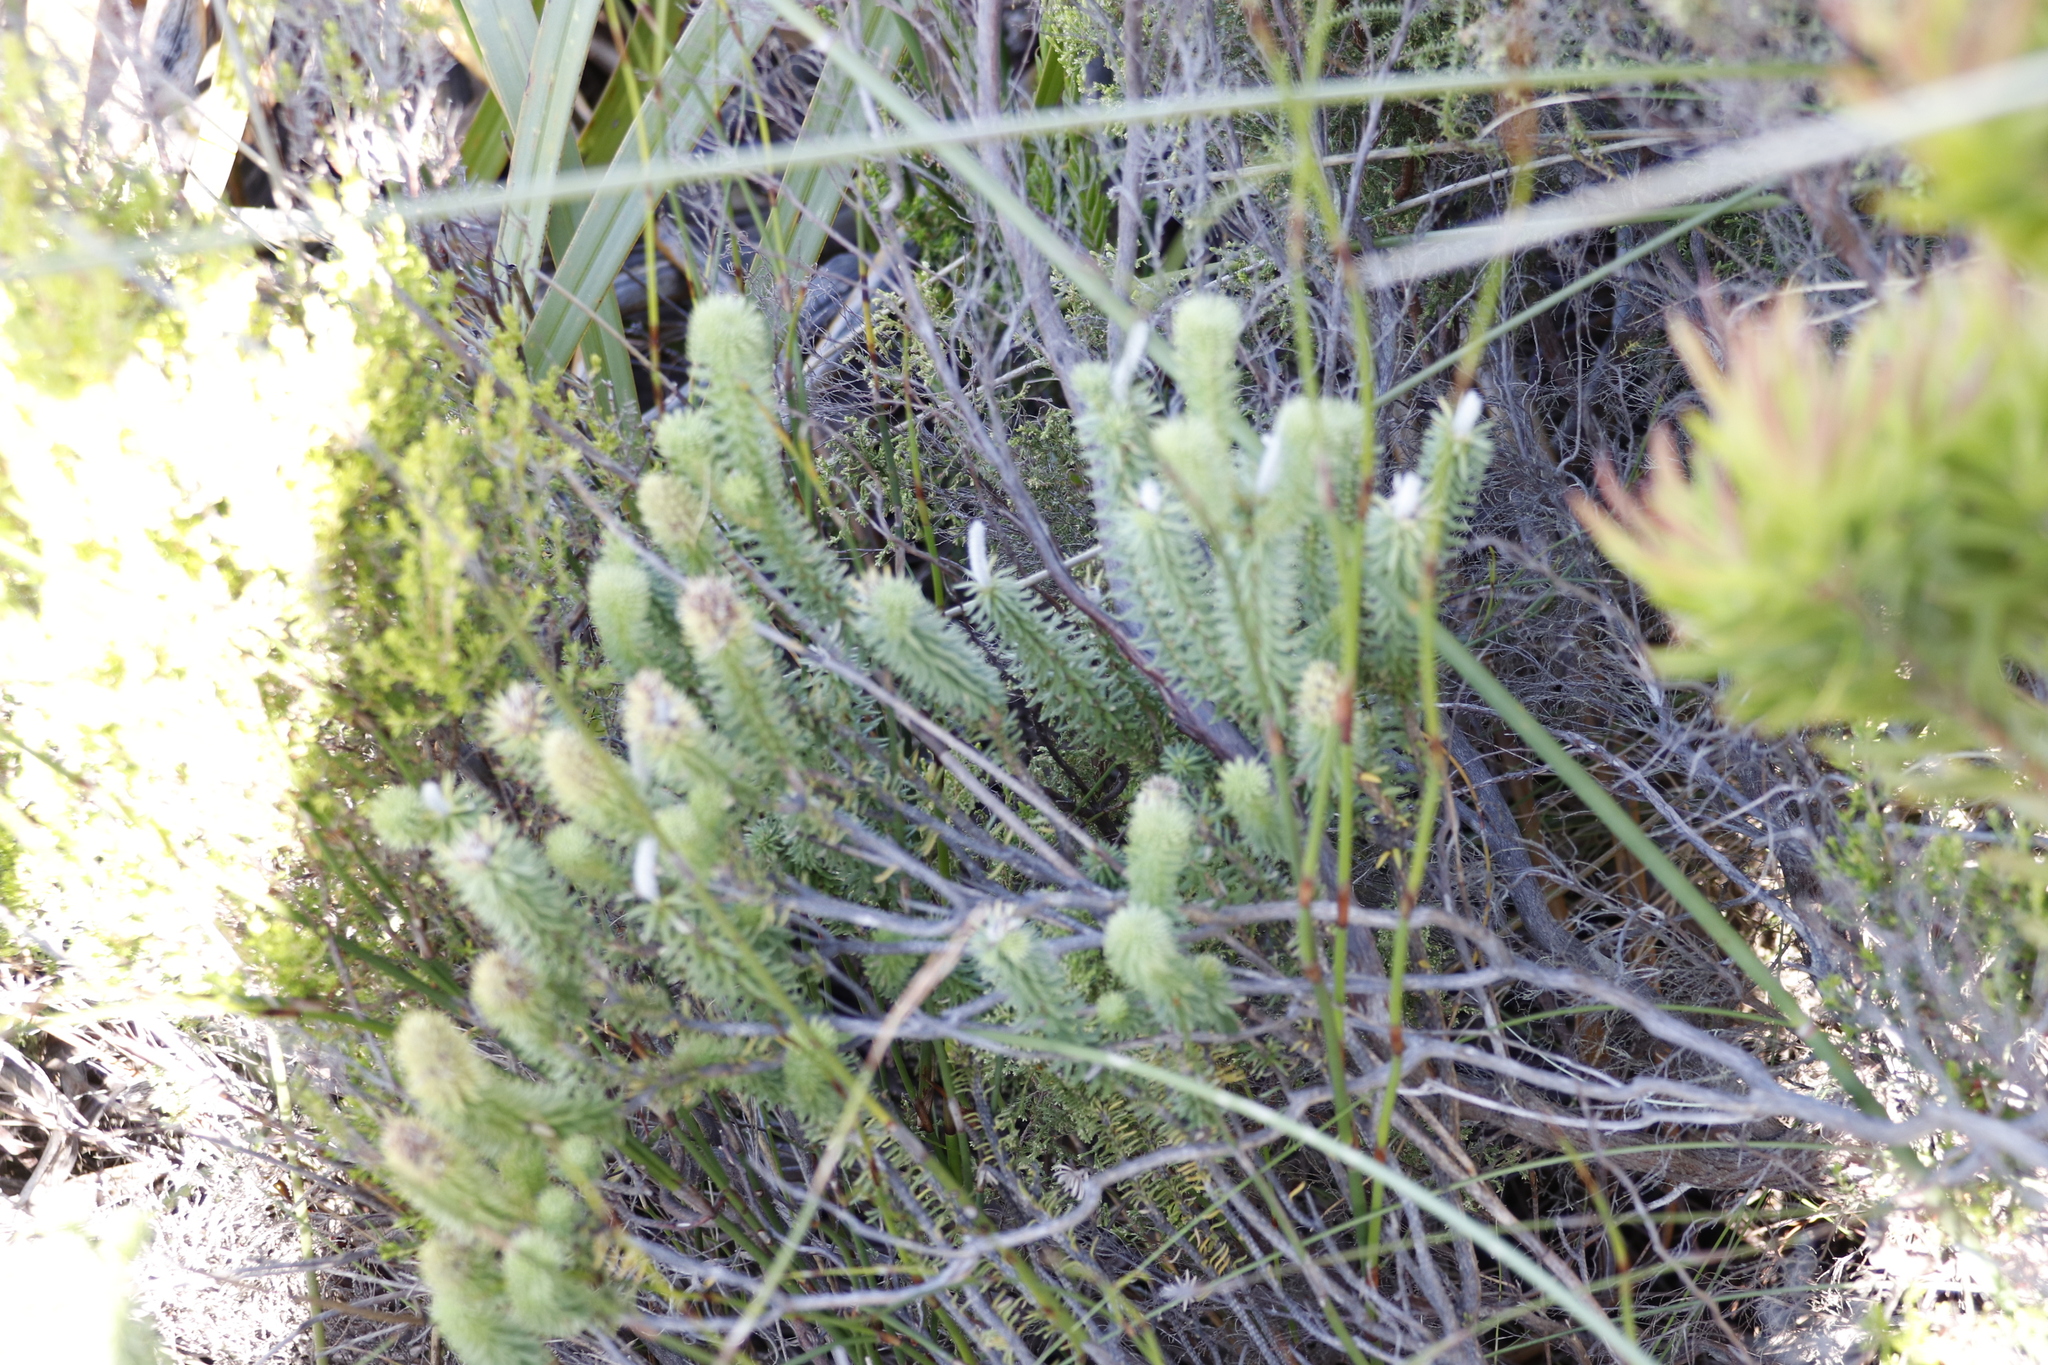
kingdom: Plantae
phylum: Tracheophyta
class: Magnoliopsida
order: Lamiales
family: Stilbaceae
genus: Stilbe
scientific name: Stilbe vestita
